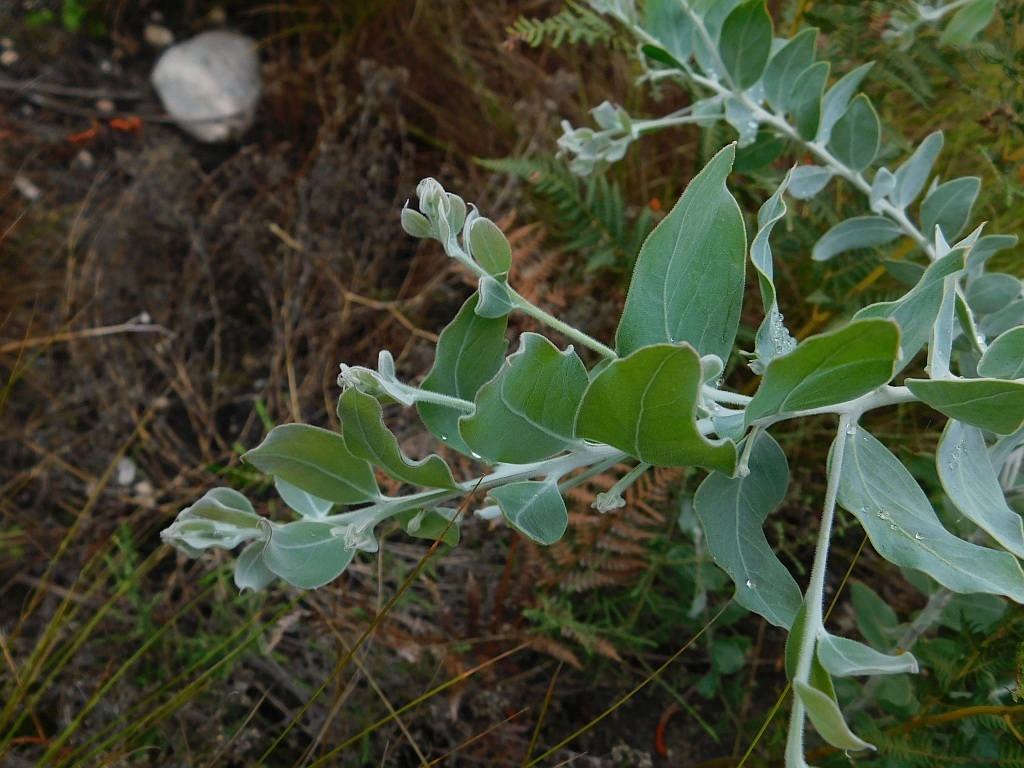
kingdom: Plantae
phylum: Tracheophyta
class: Magnoliopsida
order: Fabales
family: Fabaceae
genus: Acacia
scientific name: Acacia podalyriifolia
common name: Pearl wattle
